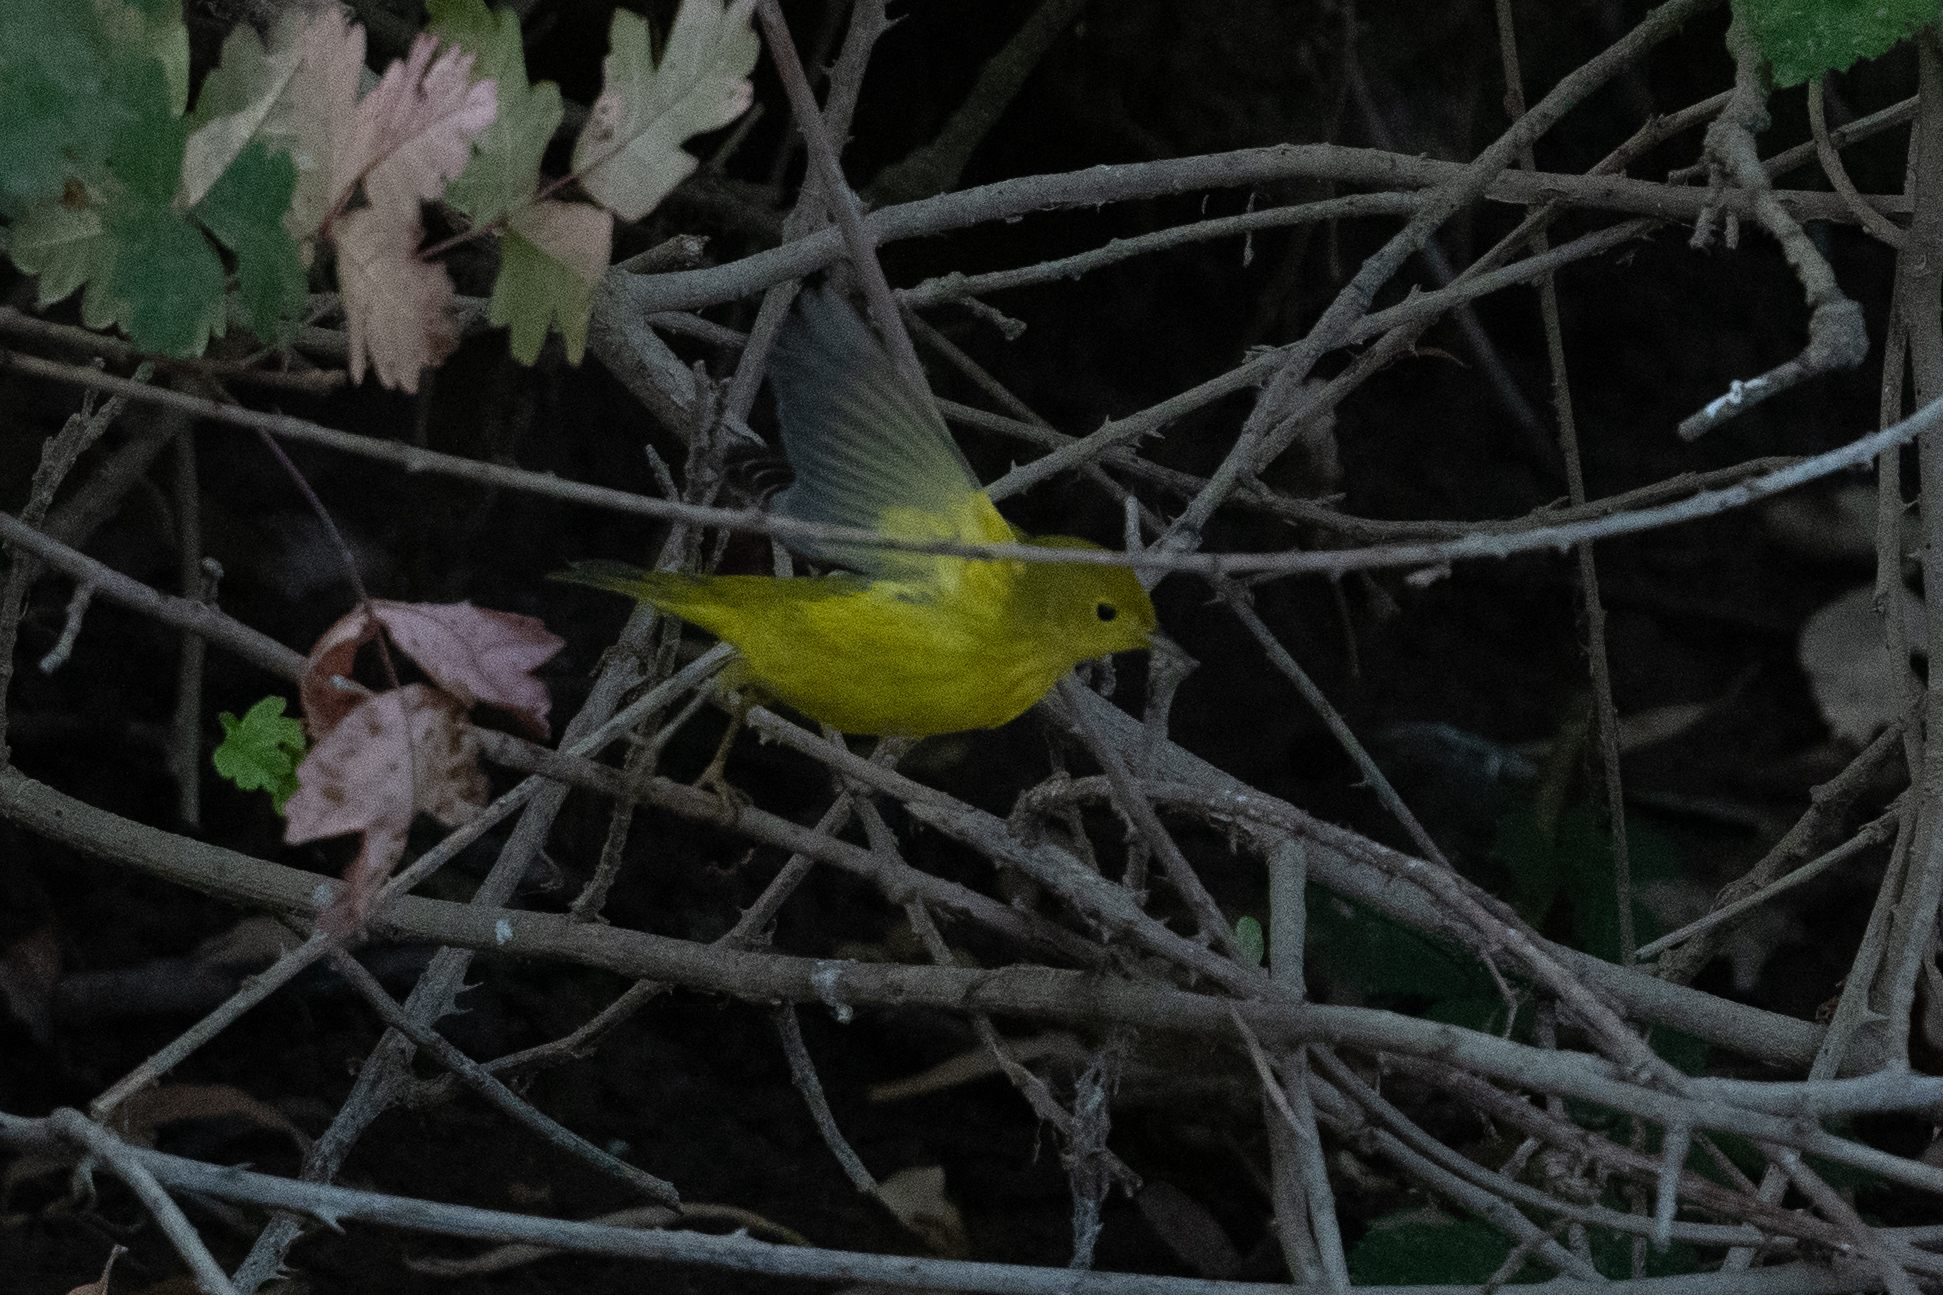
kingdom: Animalia
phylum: Chordata
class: Aves
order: Passeriformes
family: Parulidae
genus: Setophaga
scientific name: Setophaga petechia
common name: Yellow warbler
